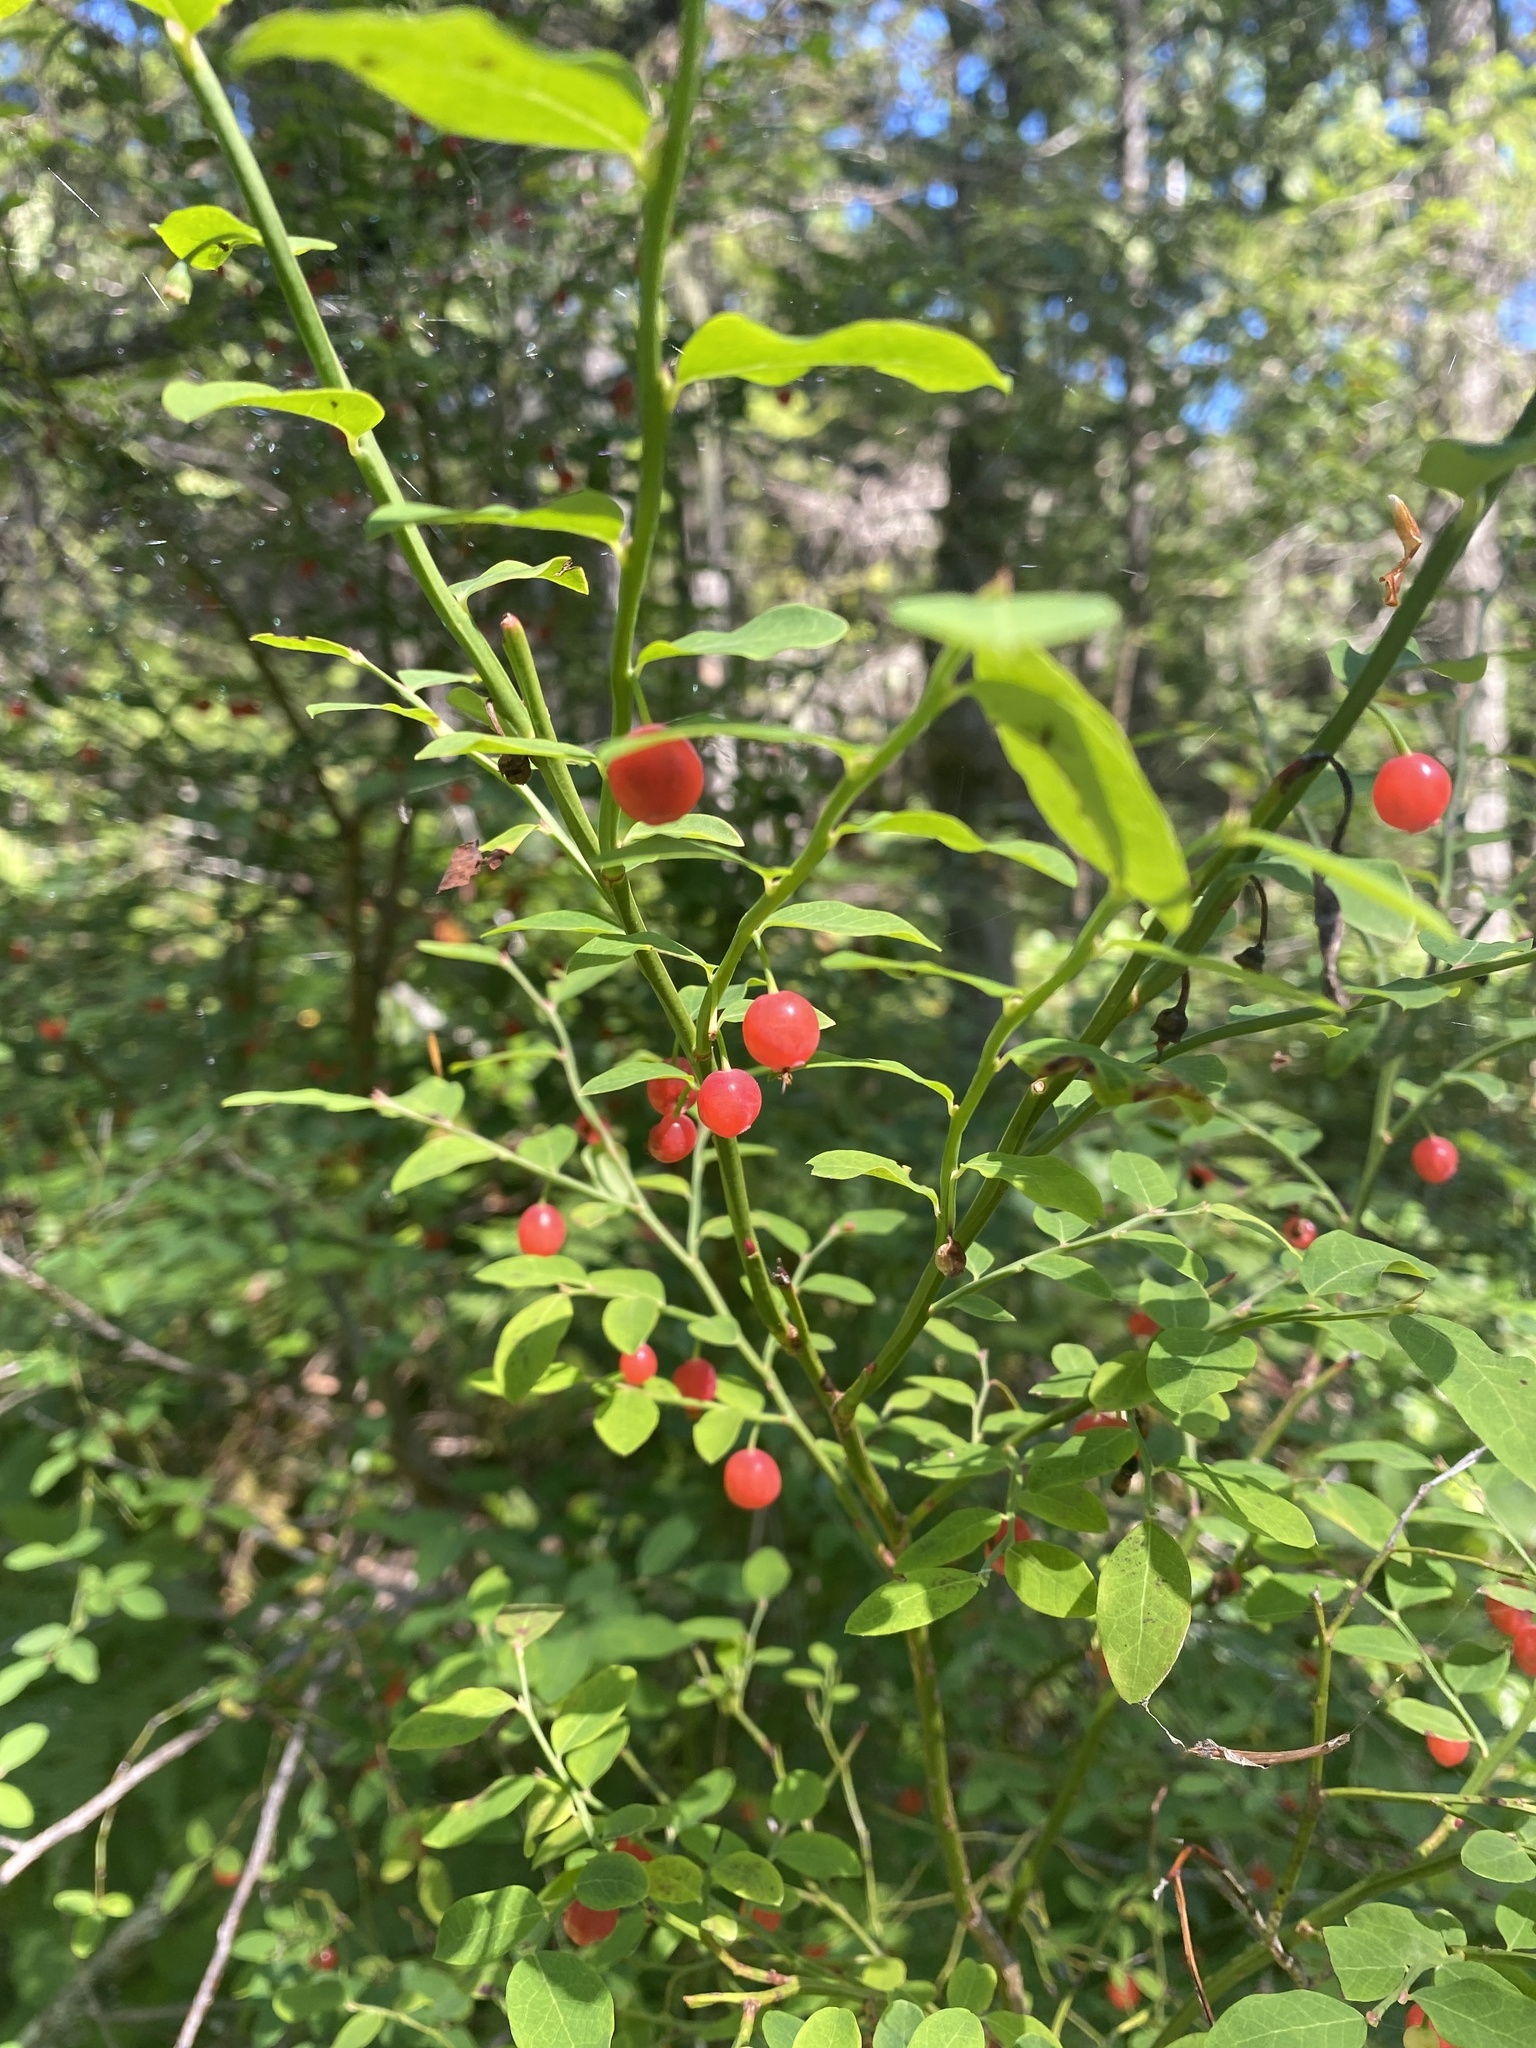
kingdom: Plantae
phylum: Tracheophyta
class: Magnoliopsida
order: Ericales
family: Ericaceae
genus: Vaccinium
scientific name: Vaccinium parvifolium
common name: Red-huckleberry
